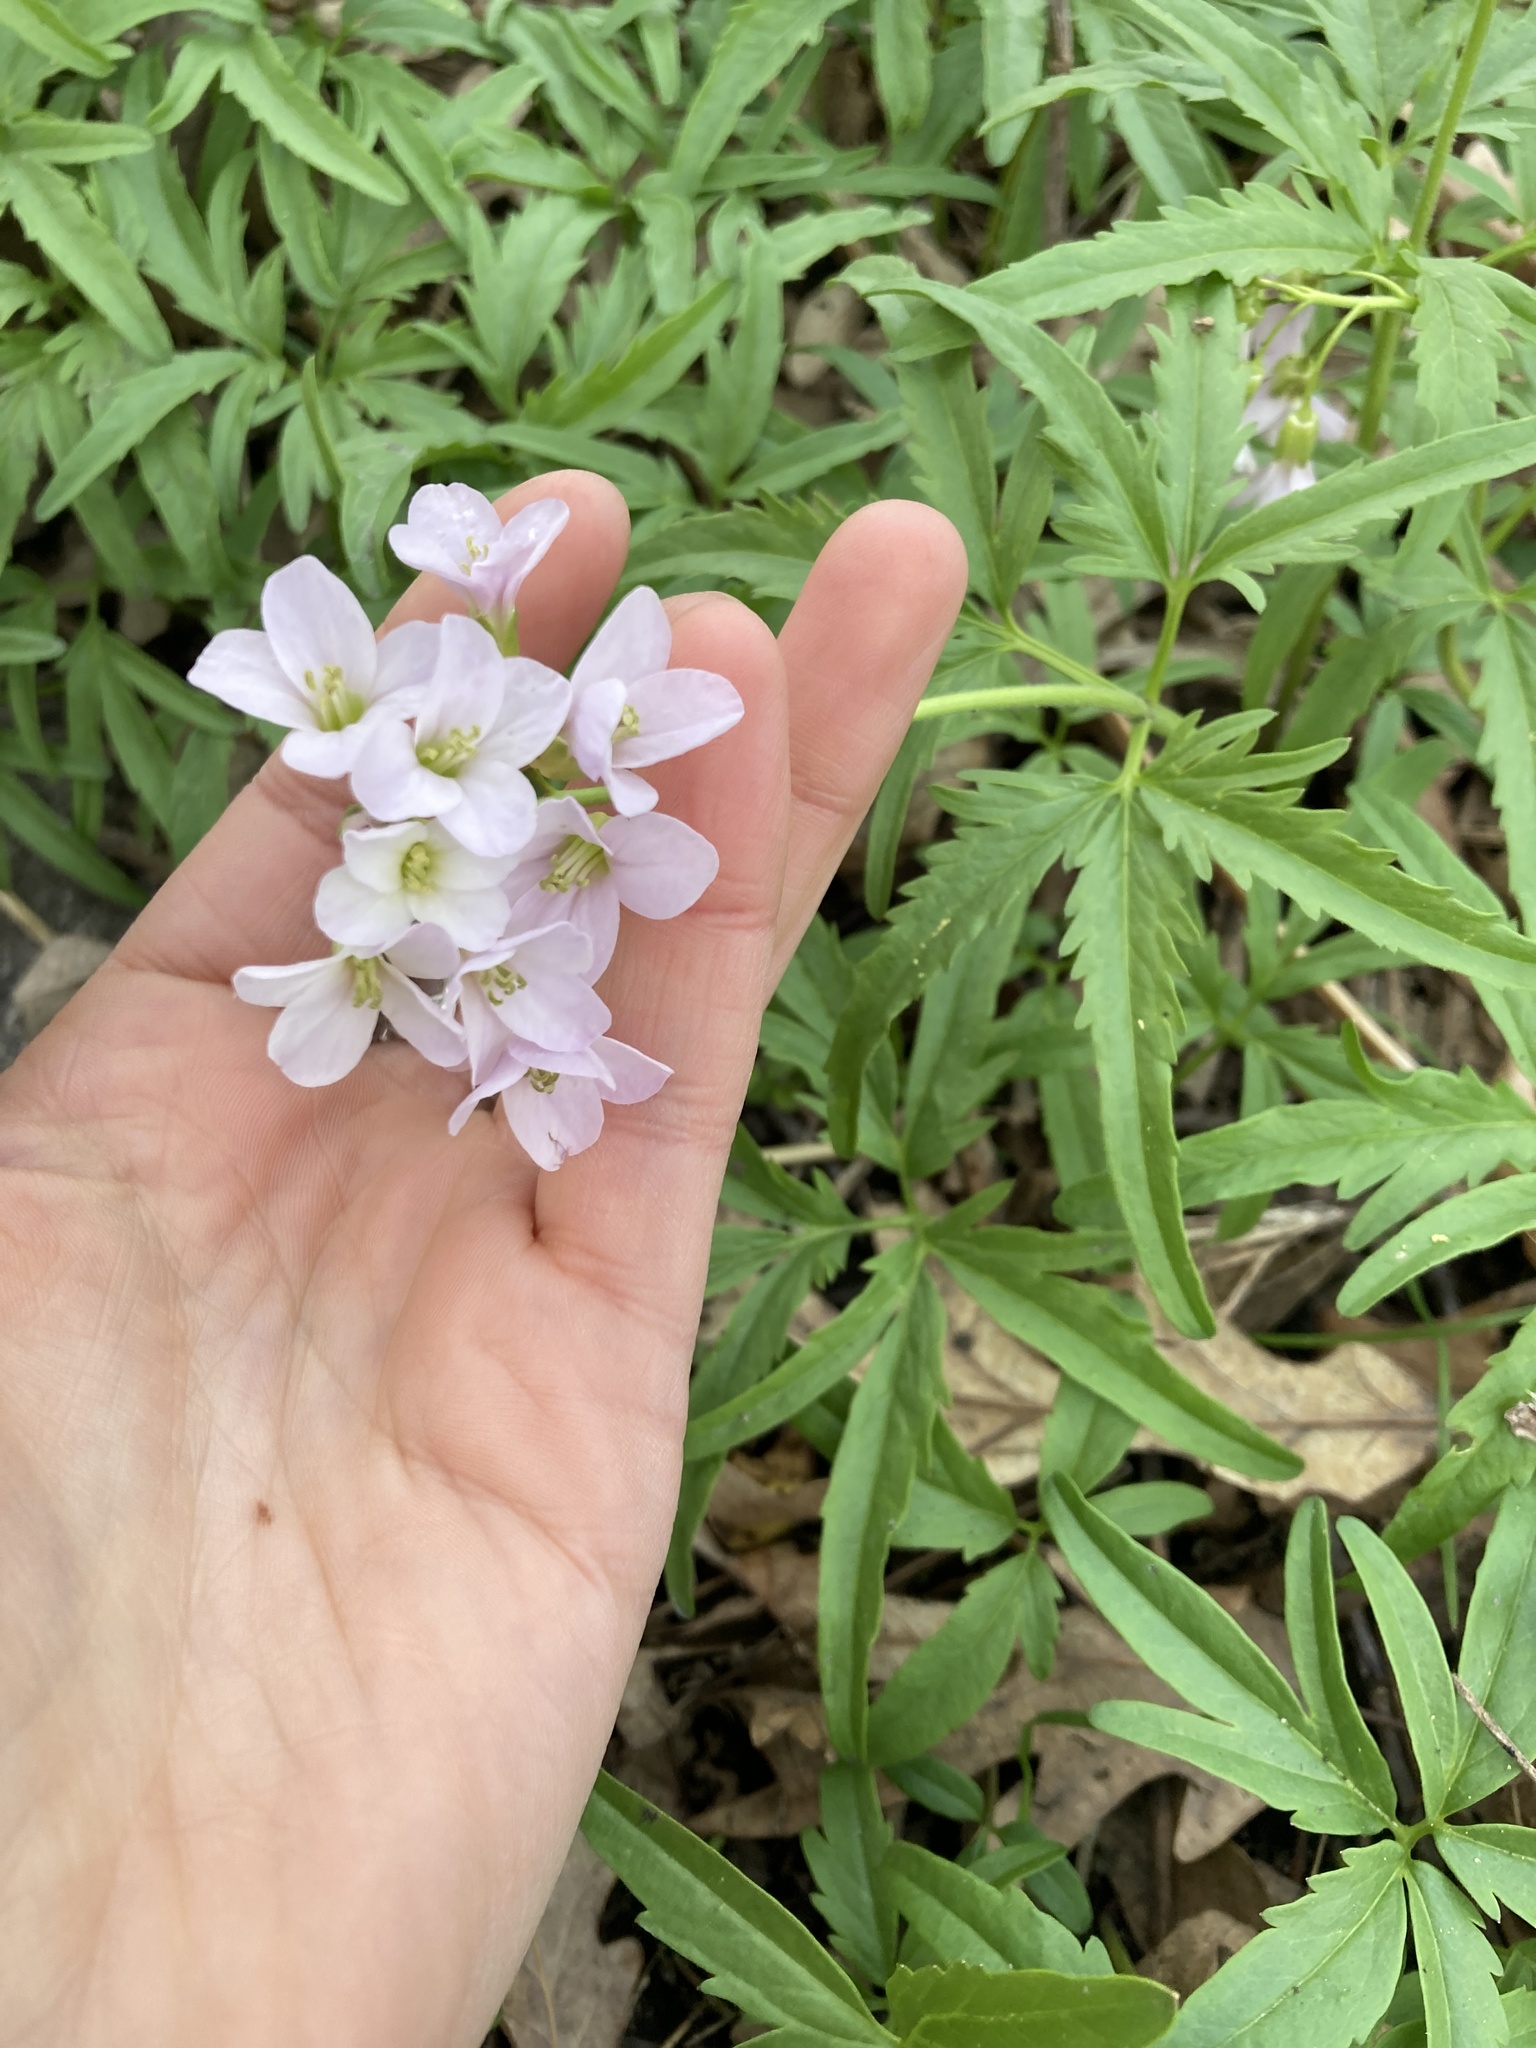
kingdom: Plantae
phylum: Tracheophyta
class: Magnoliopsida
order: Brassicales
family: Brassicaceae
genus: Cardamine
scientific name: Cardamine concatenata
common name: Cut-leaf toothcup
